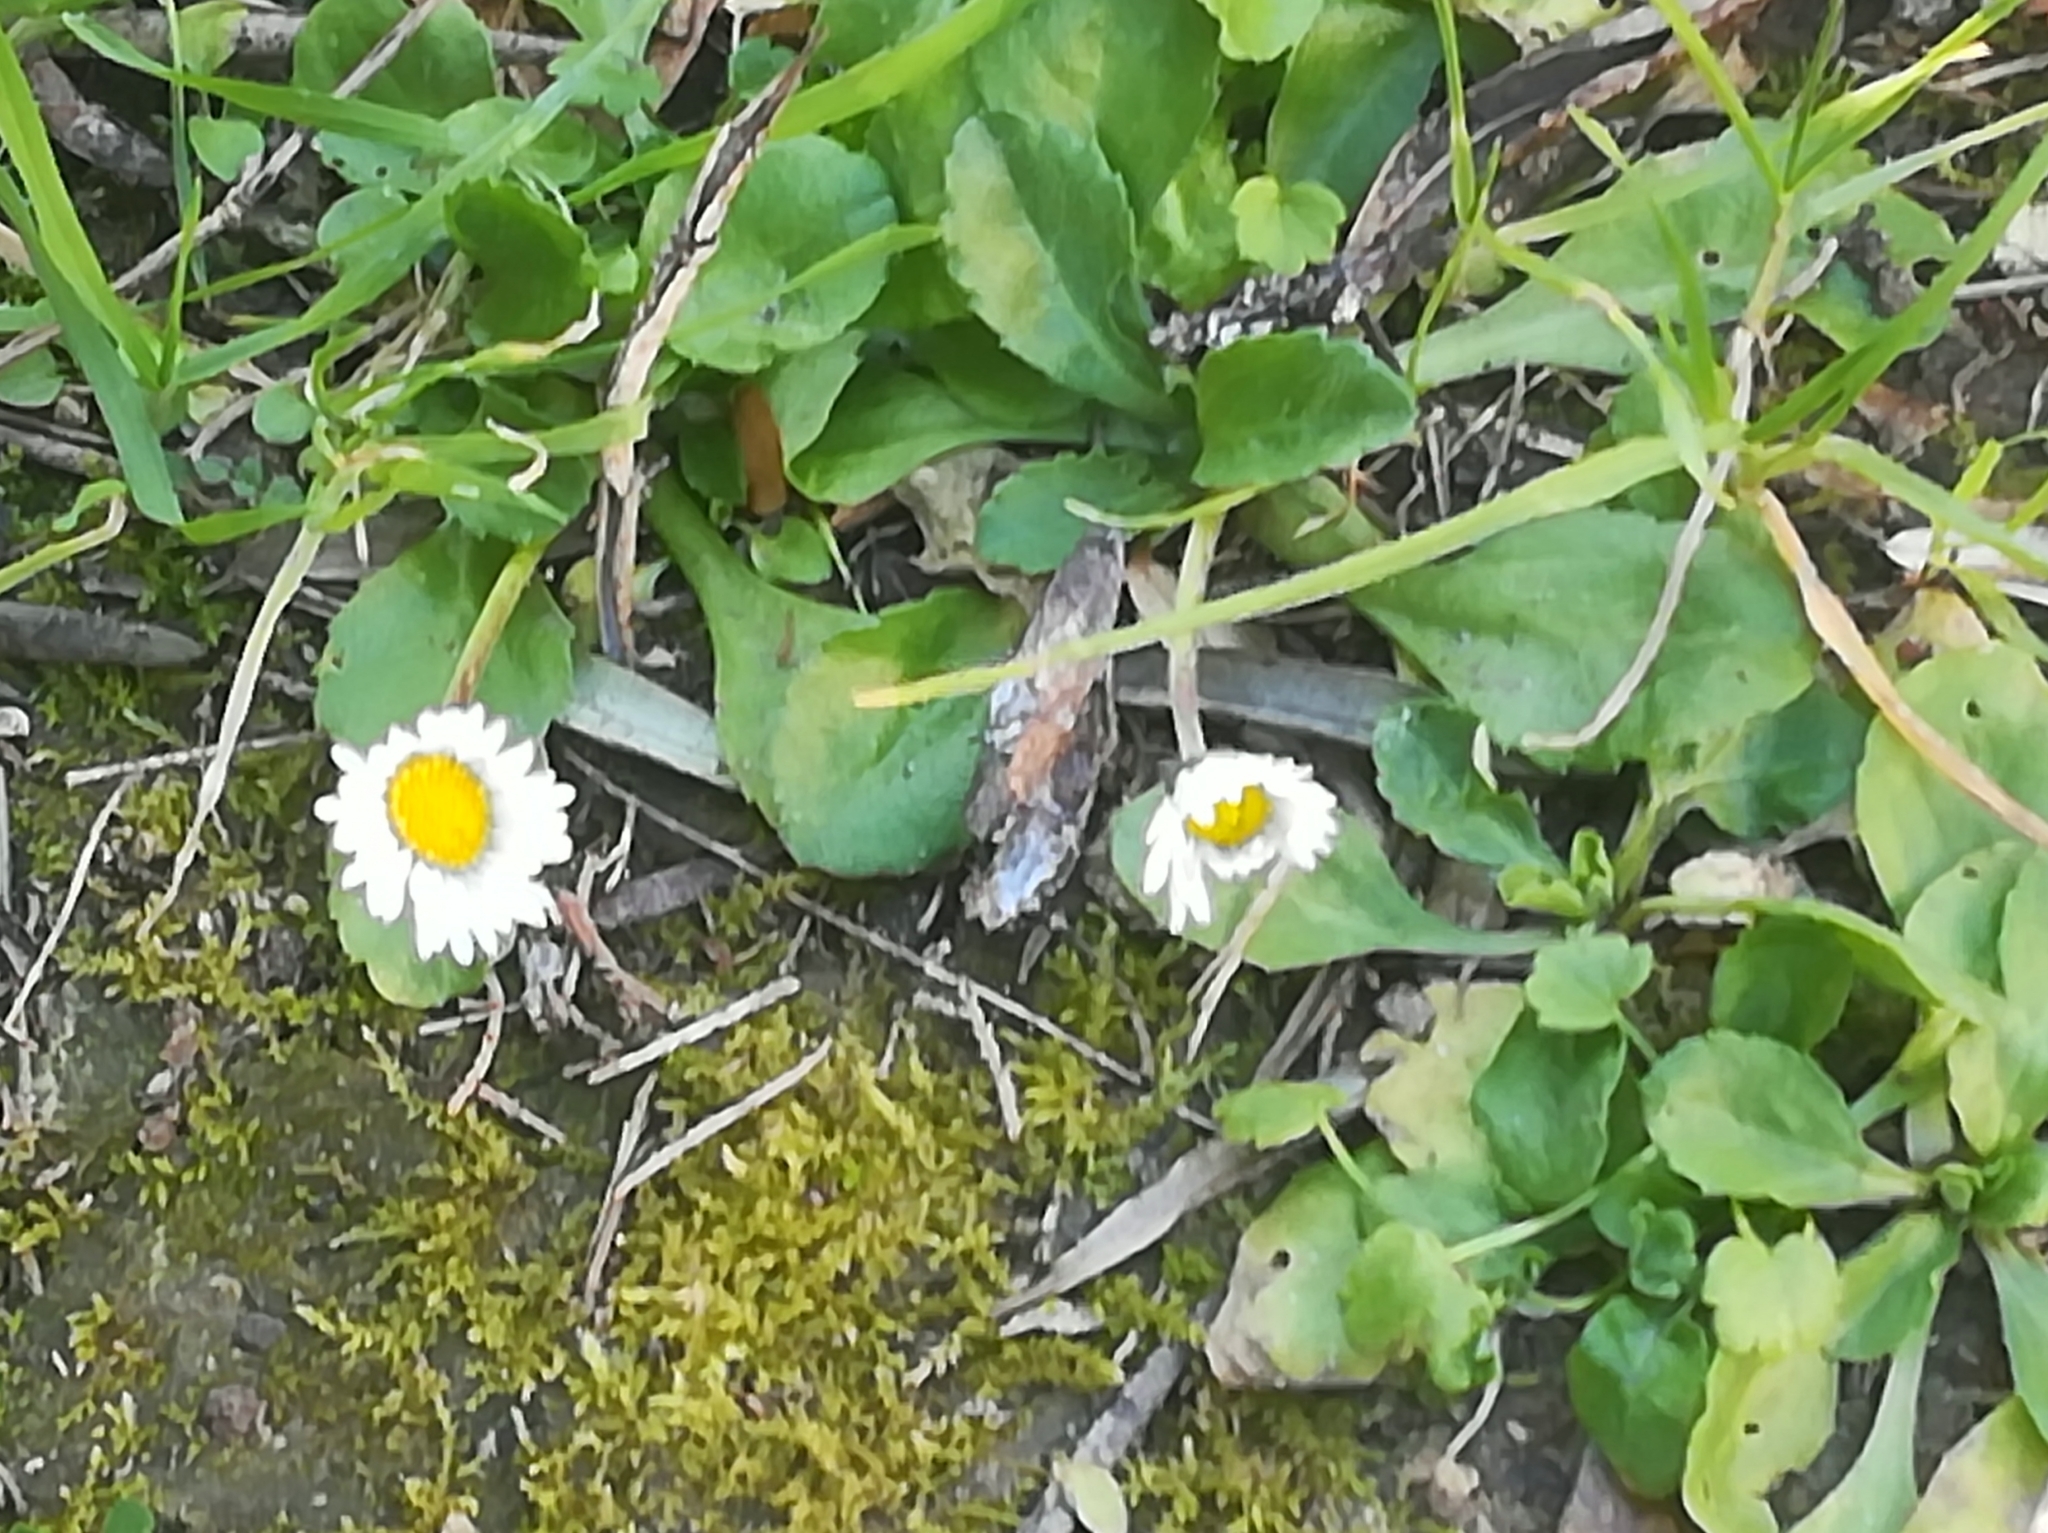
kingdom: Plantae
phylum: Tracheophyta
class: Magnoliopsida
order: Asterales
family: Asteraceae
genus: Bellis
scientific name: Bellis perennis
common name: Lawndaisy
